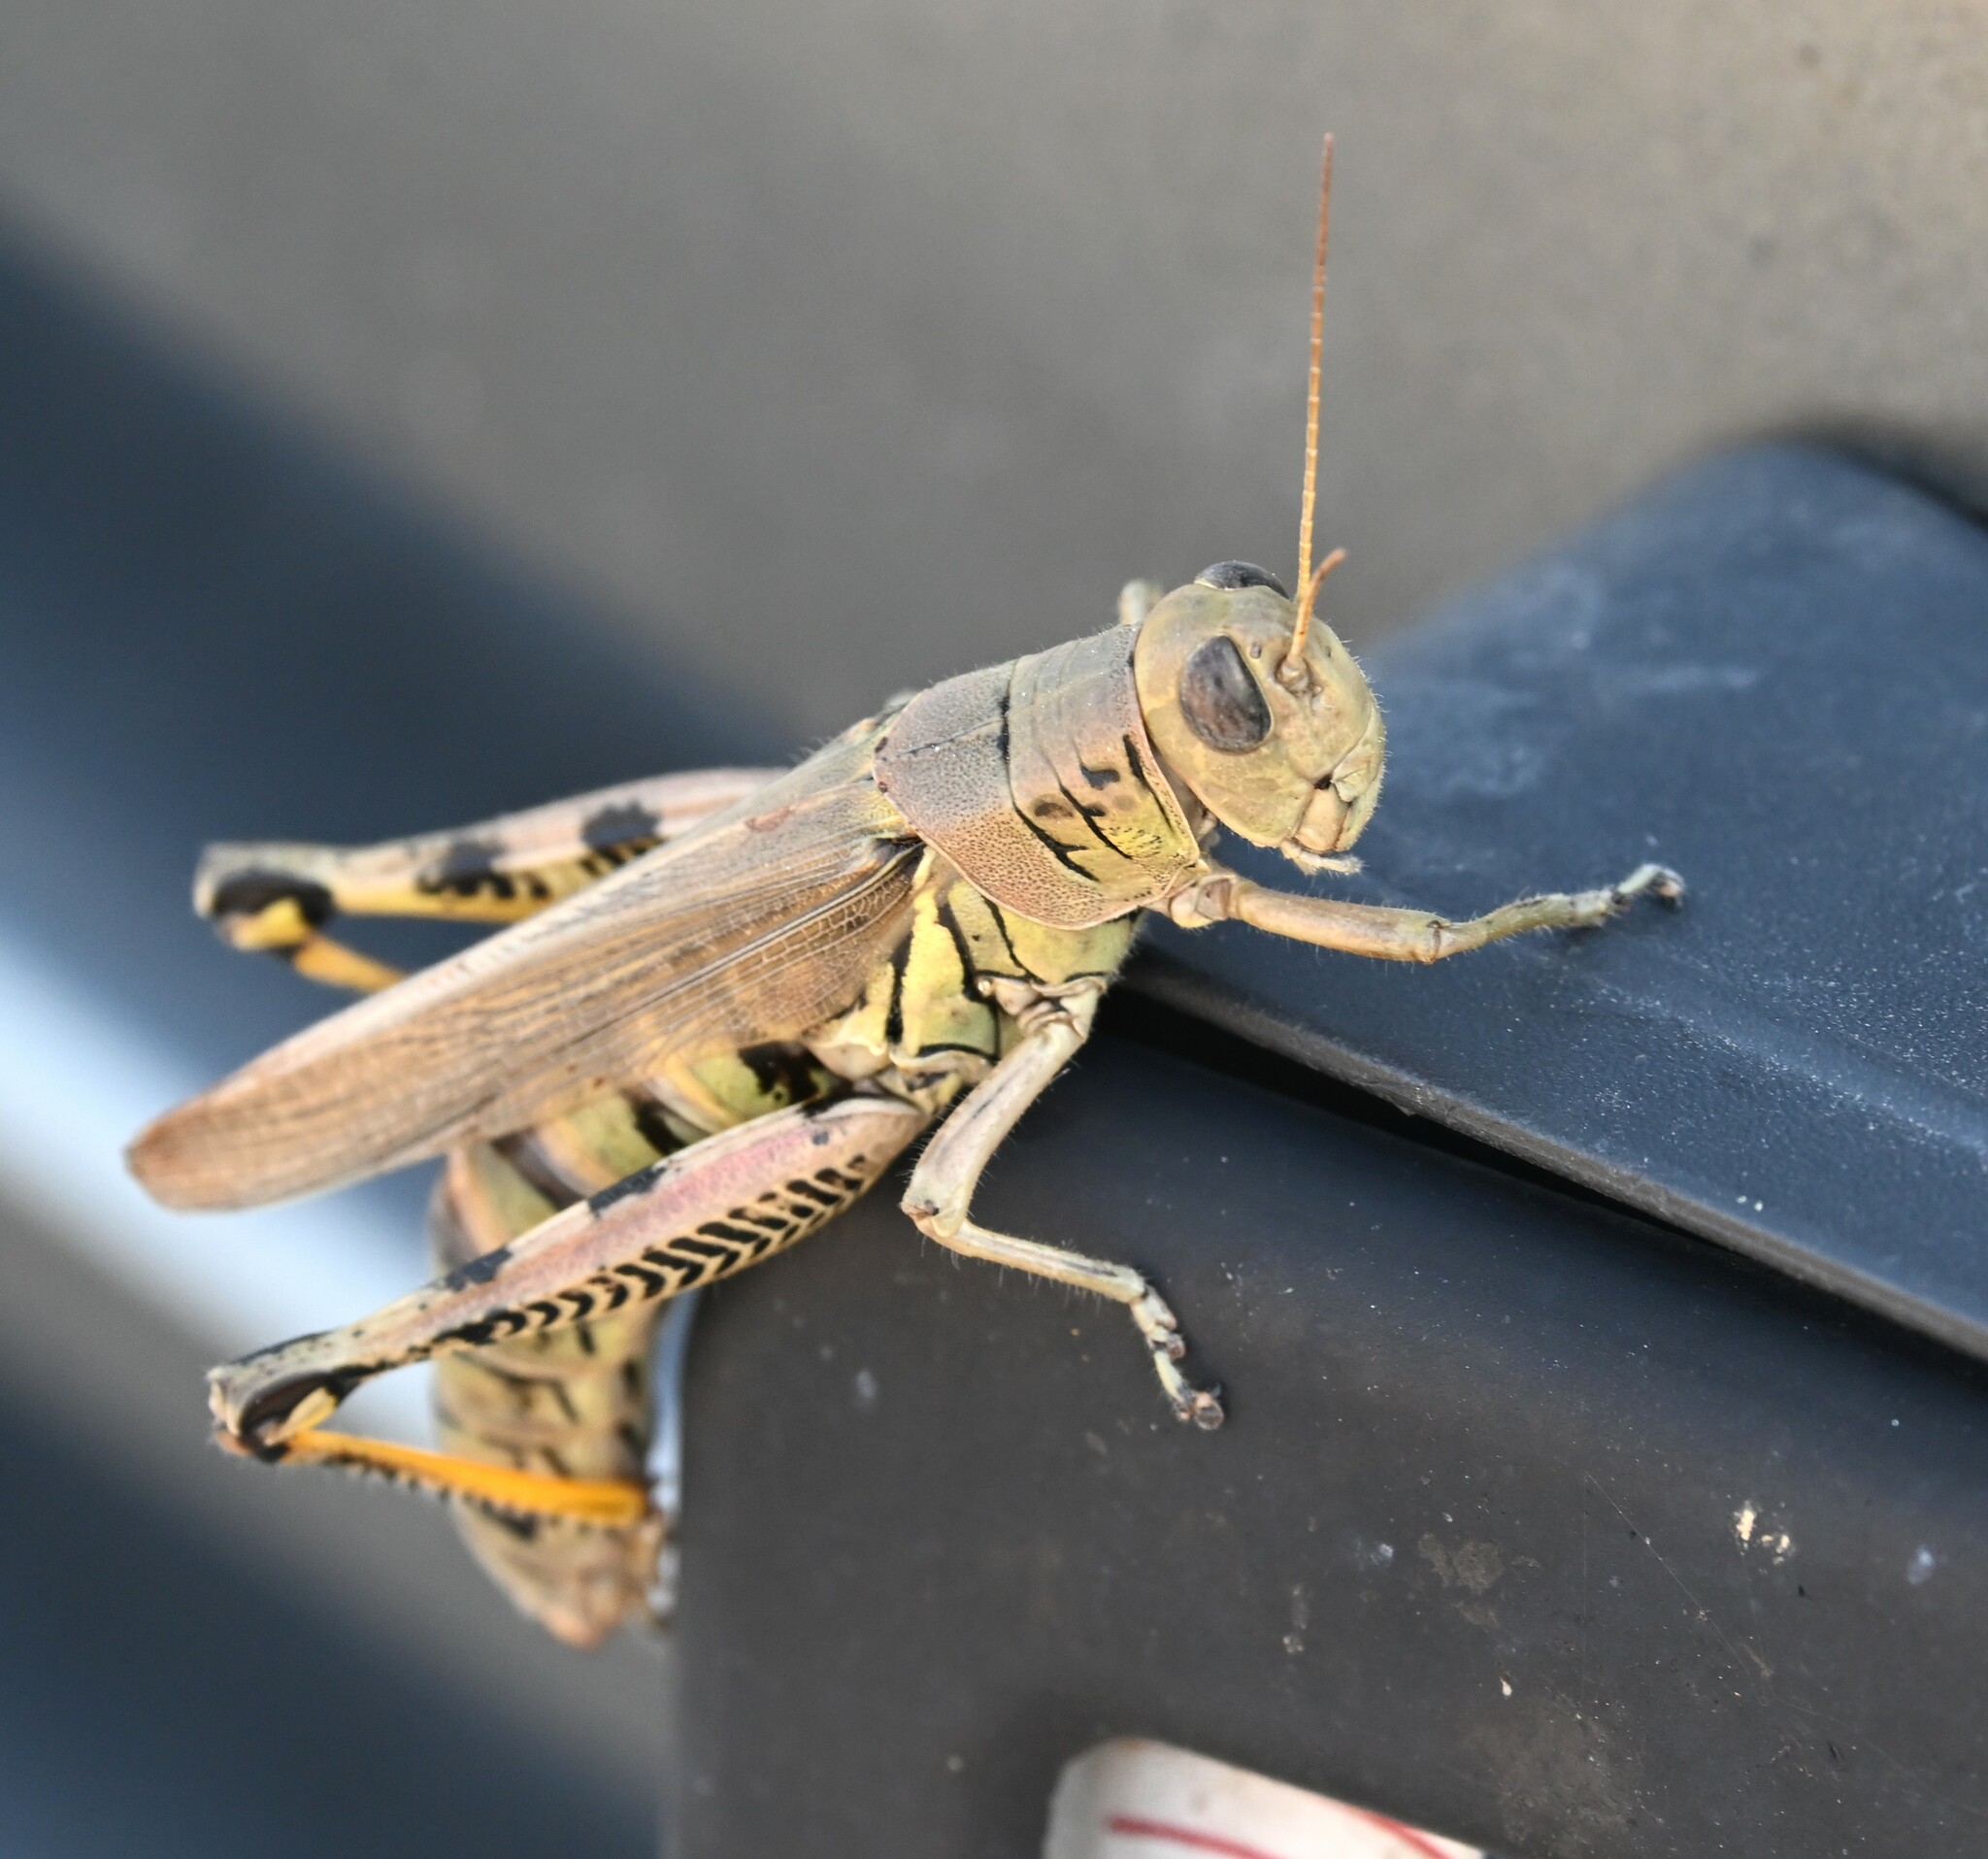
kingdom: Animalia
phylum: Arthropoda
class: Insecta
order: Orthoptera
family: Acrididae
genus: Melanoplus
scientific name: Melanoplus differentialis
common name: Differential grasshopper
